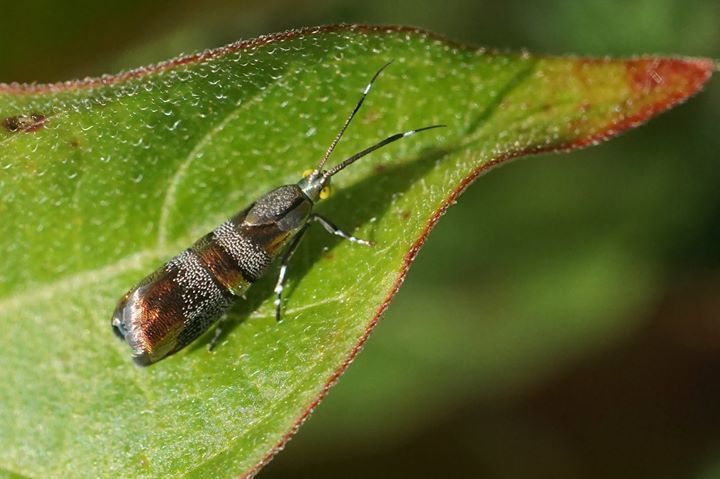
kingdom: Animalia
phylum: Arthropoda
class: Insecta
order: Lepidoptera
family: Choreutidae
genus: Tortyra
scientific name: Tortyra slossonia
